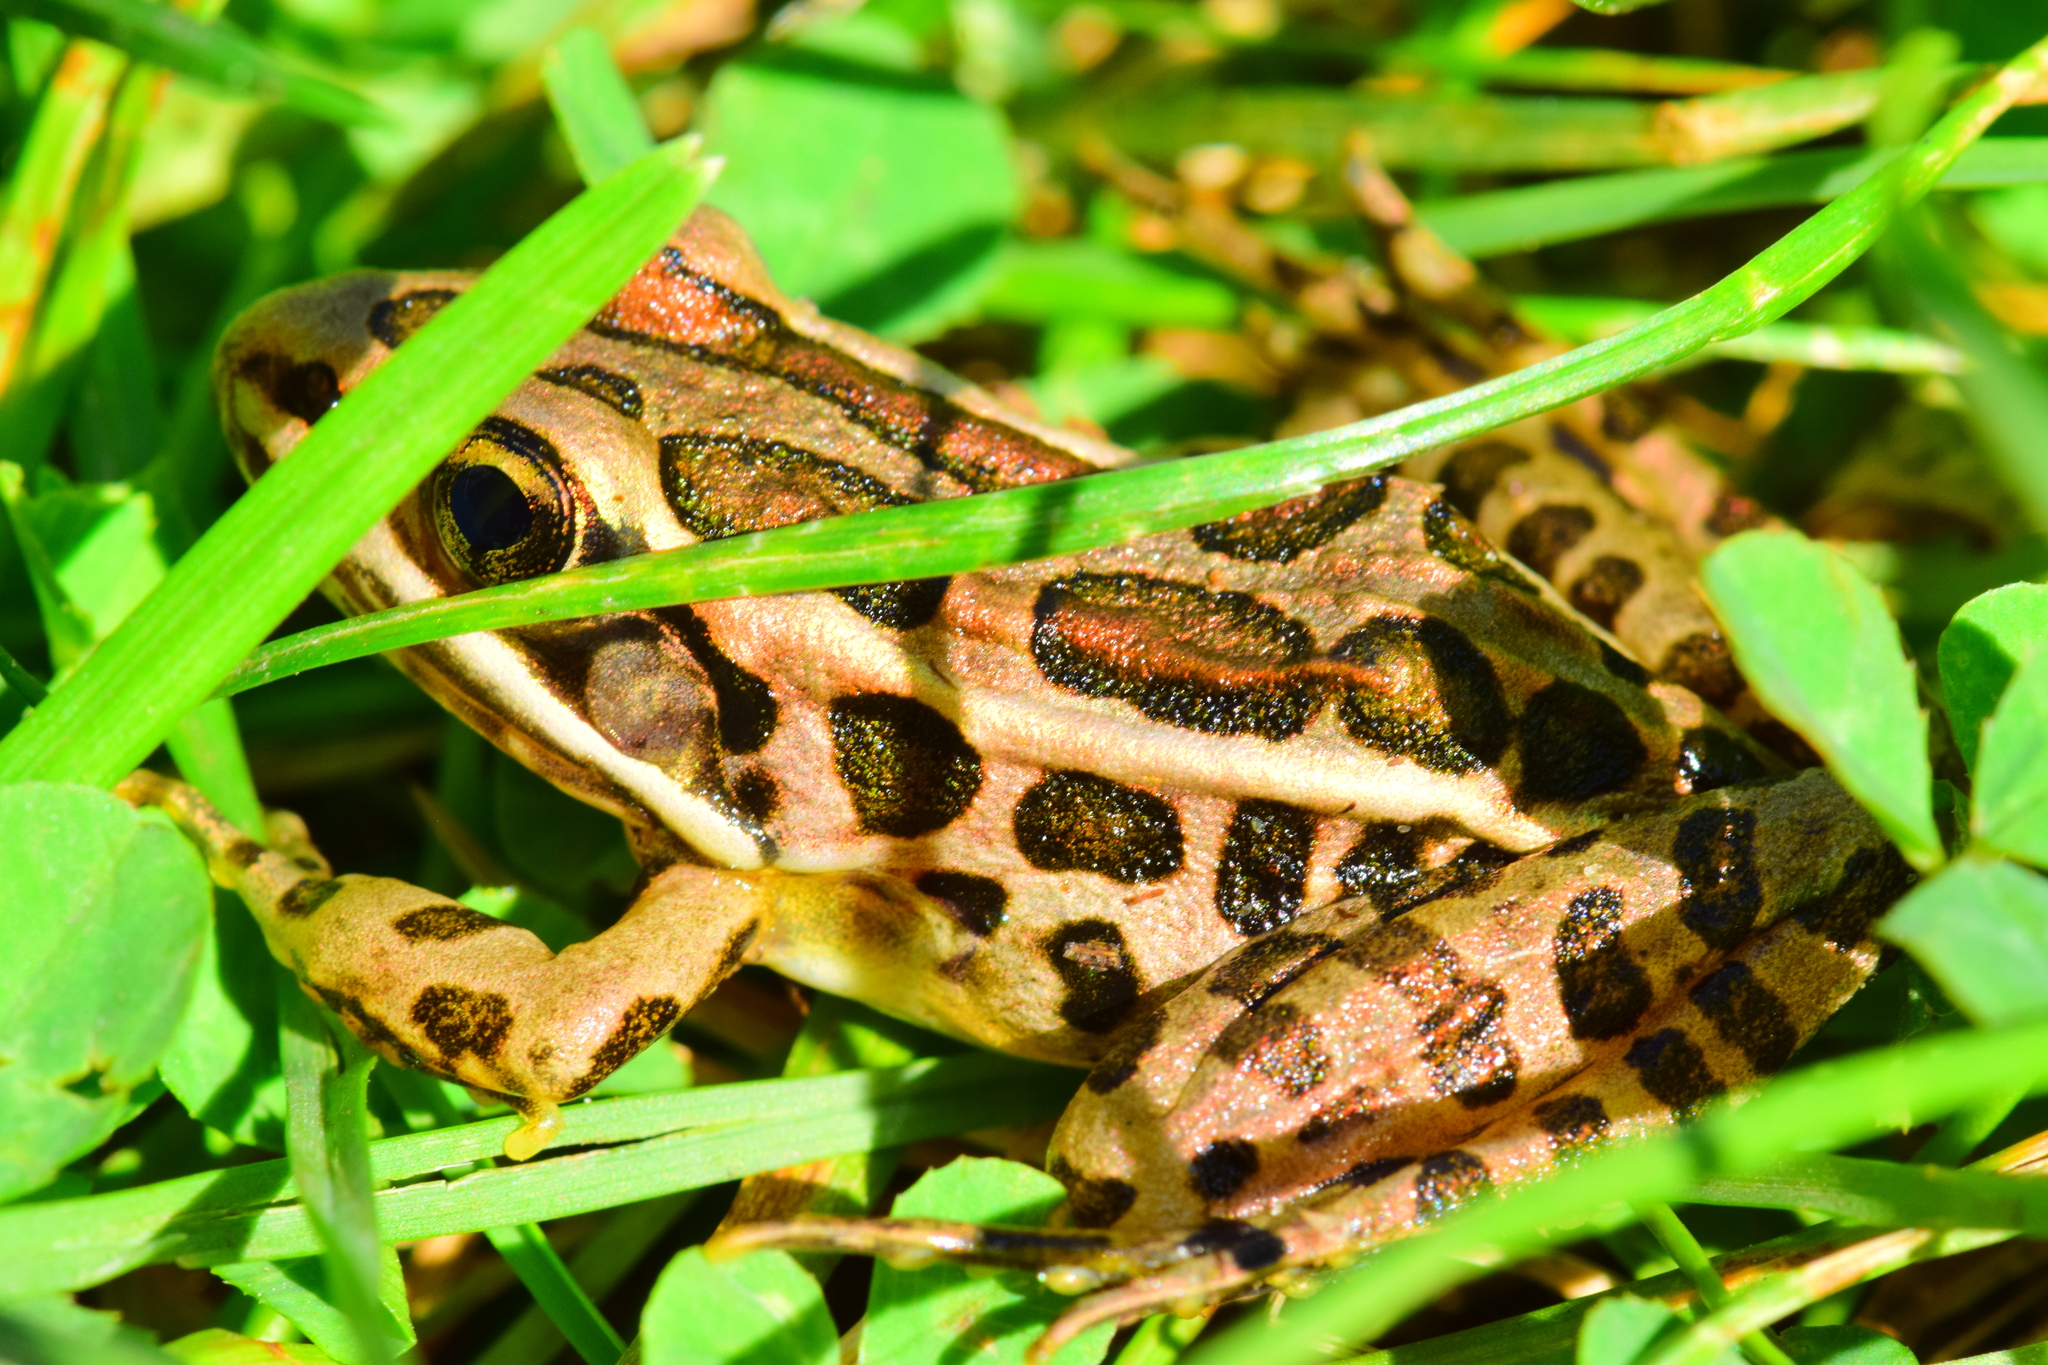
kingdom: Animalia
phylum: Chordata
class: Amphibia
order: Anura
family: Ranidae
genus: Lithobates
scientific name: Lithobates palustris
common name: Pickerel frog
